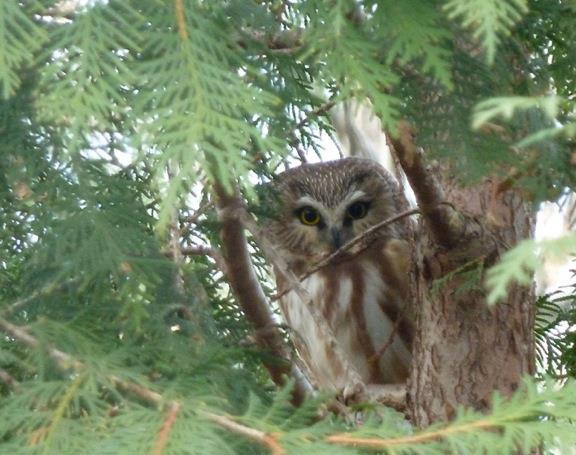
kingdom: Animalia
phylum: Chordata
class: Aves
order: Strigiformes
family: Strigidae
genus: Aegolius
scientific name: Aegolius acadicus
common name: Northern saw-whet owl
